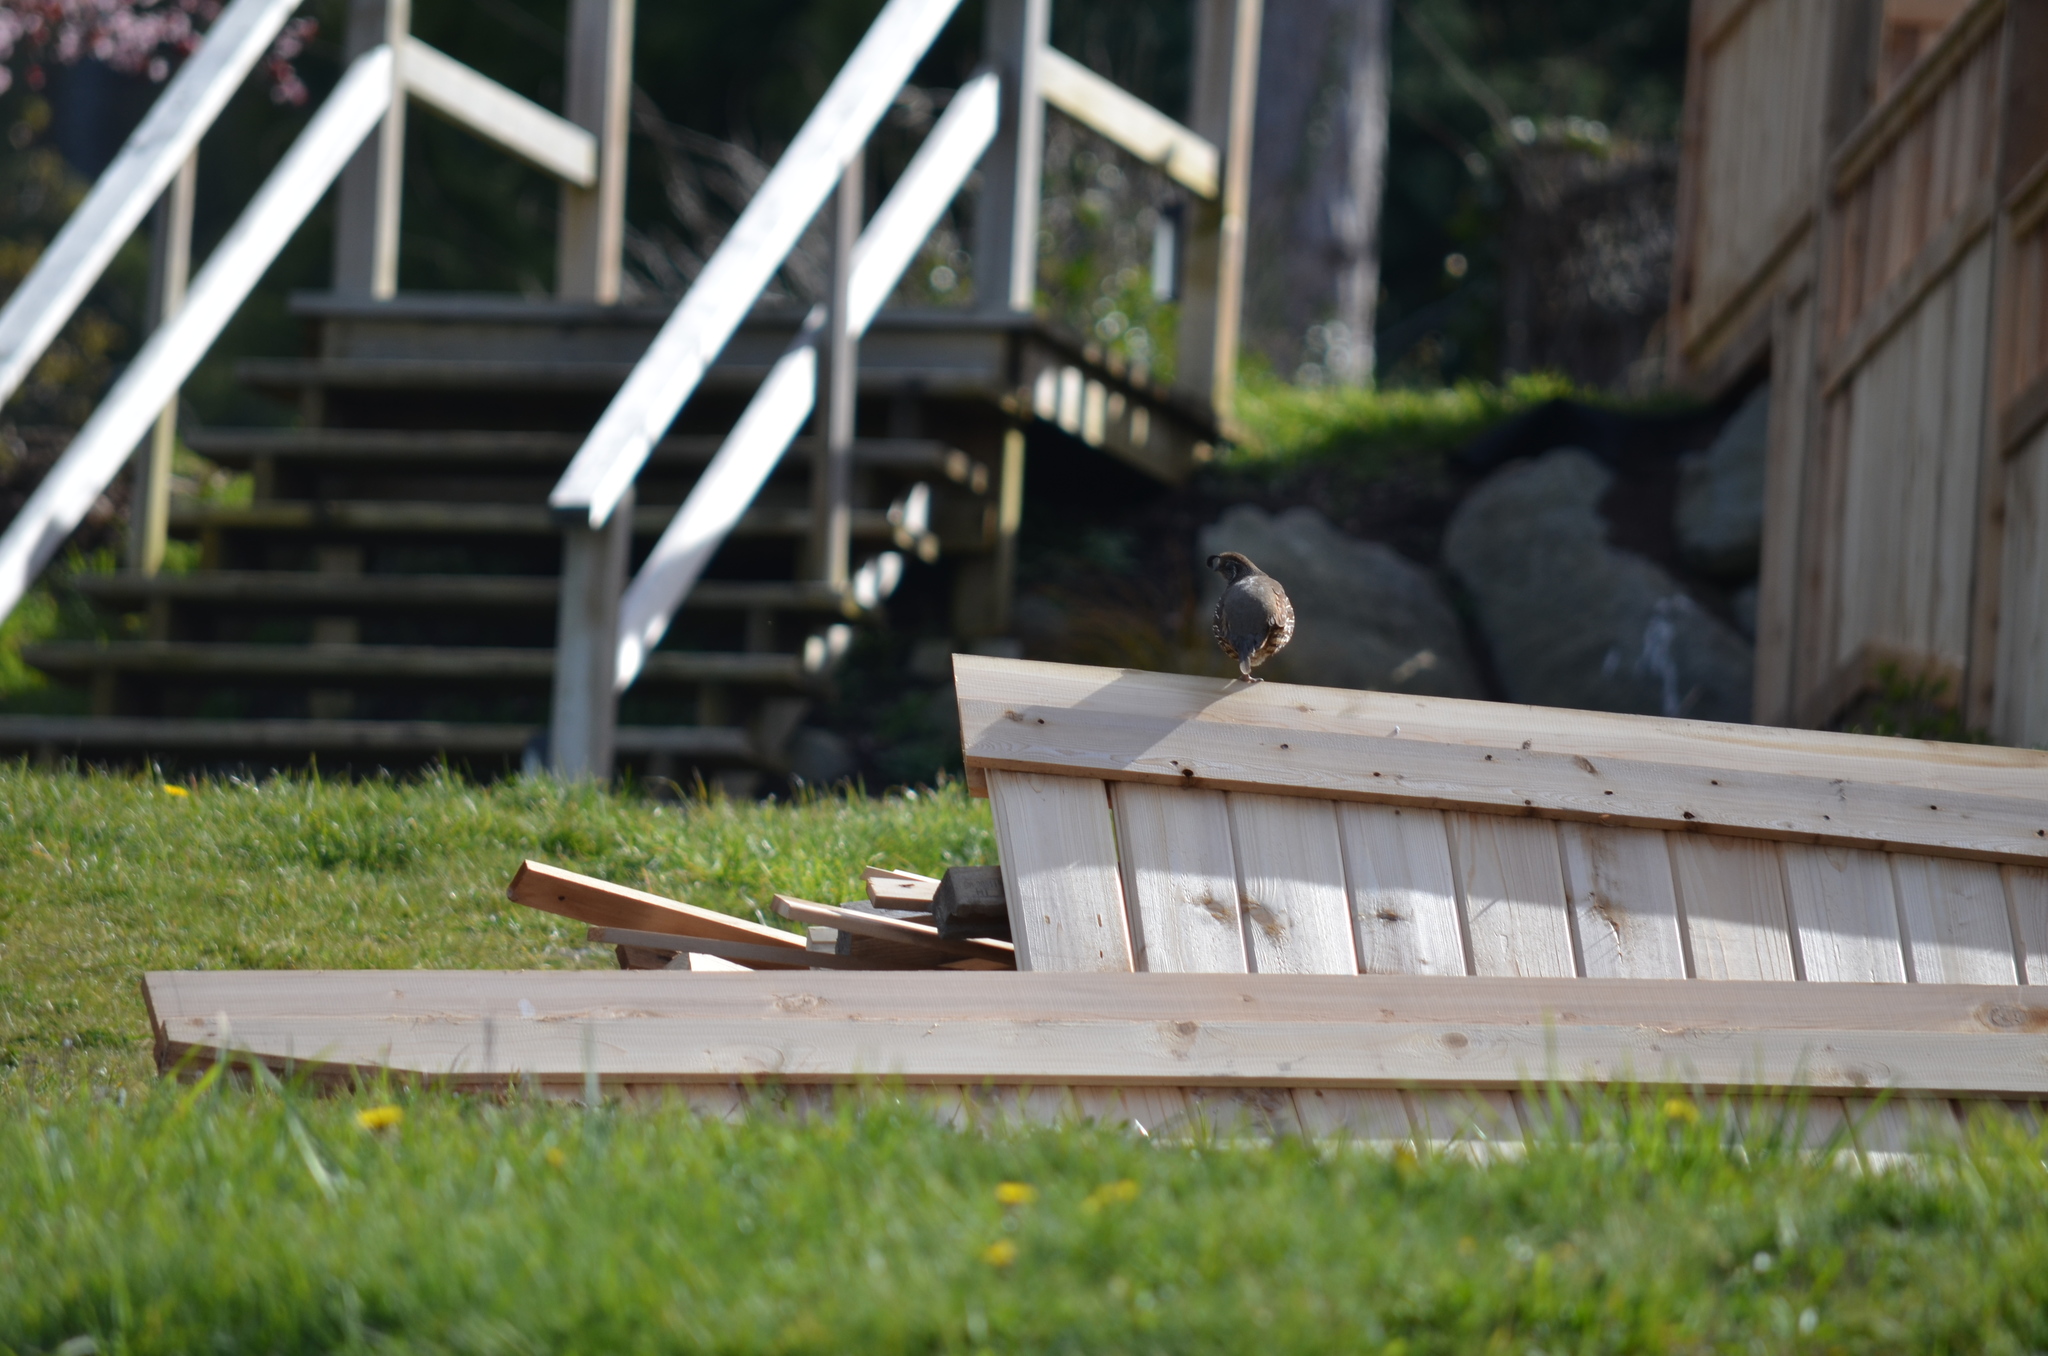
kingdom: Animalia
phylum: Chordata
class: Aves
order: Galliformes
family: Odontophoridae
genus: Callipepla
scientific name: Callipepla californica
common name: California quail
